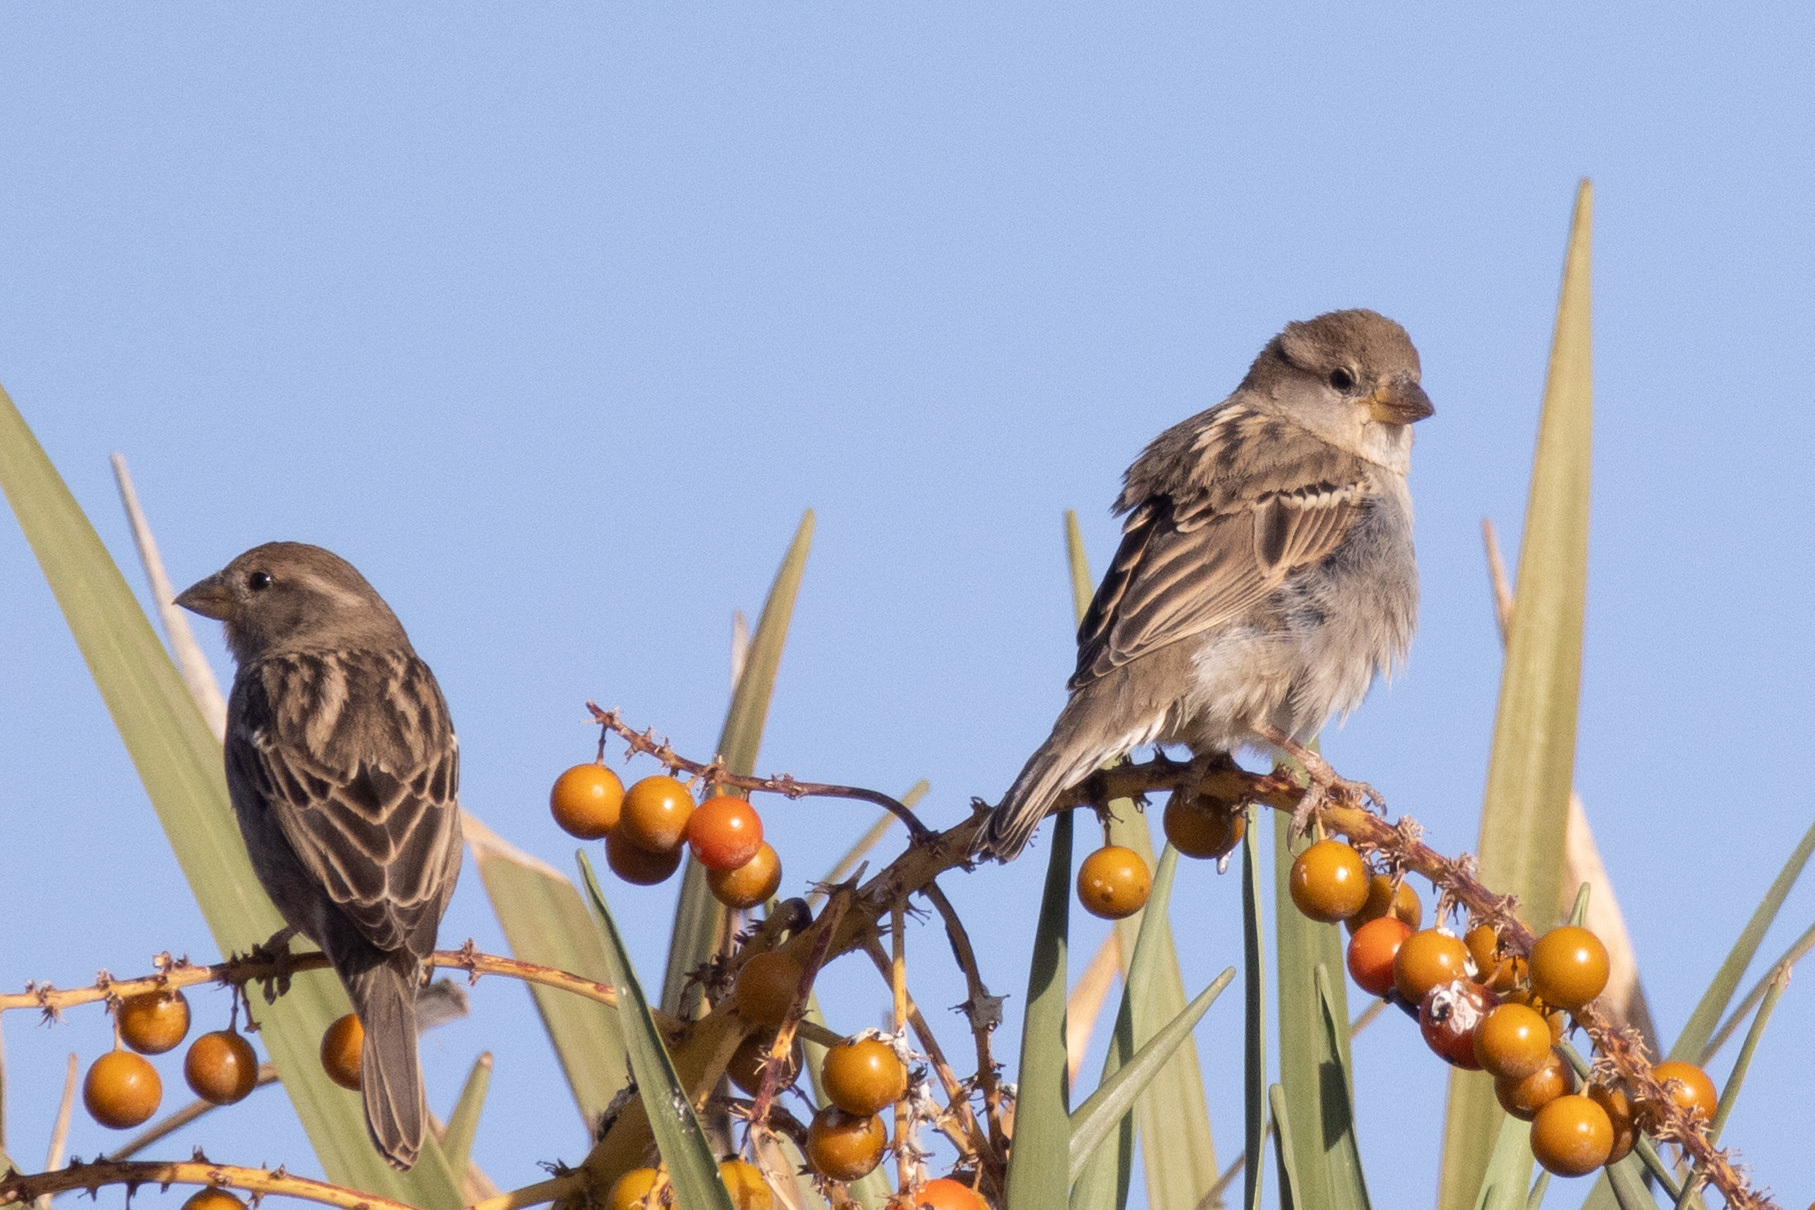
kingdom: Animalia
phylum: Chordata
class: Aves
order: Passeriformes
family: Passeridae
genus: Passer
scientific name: Passer hispaniolensis
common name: Spanish sparrow
